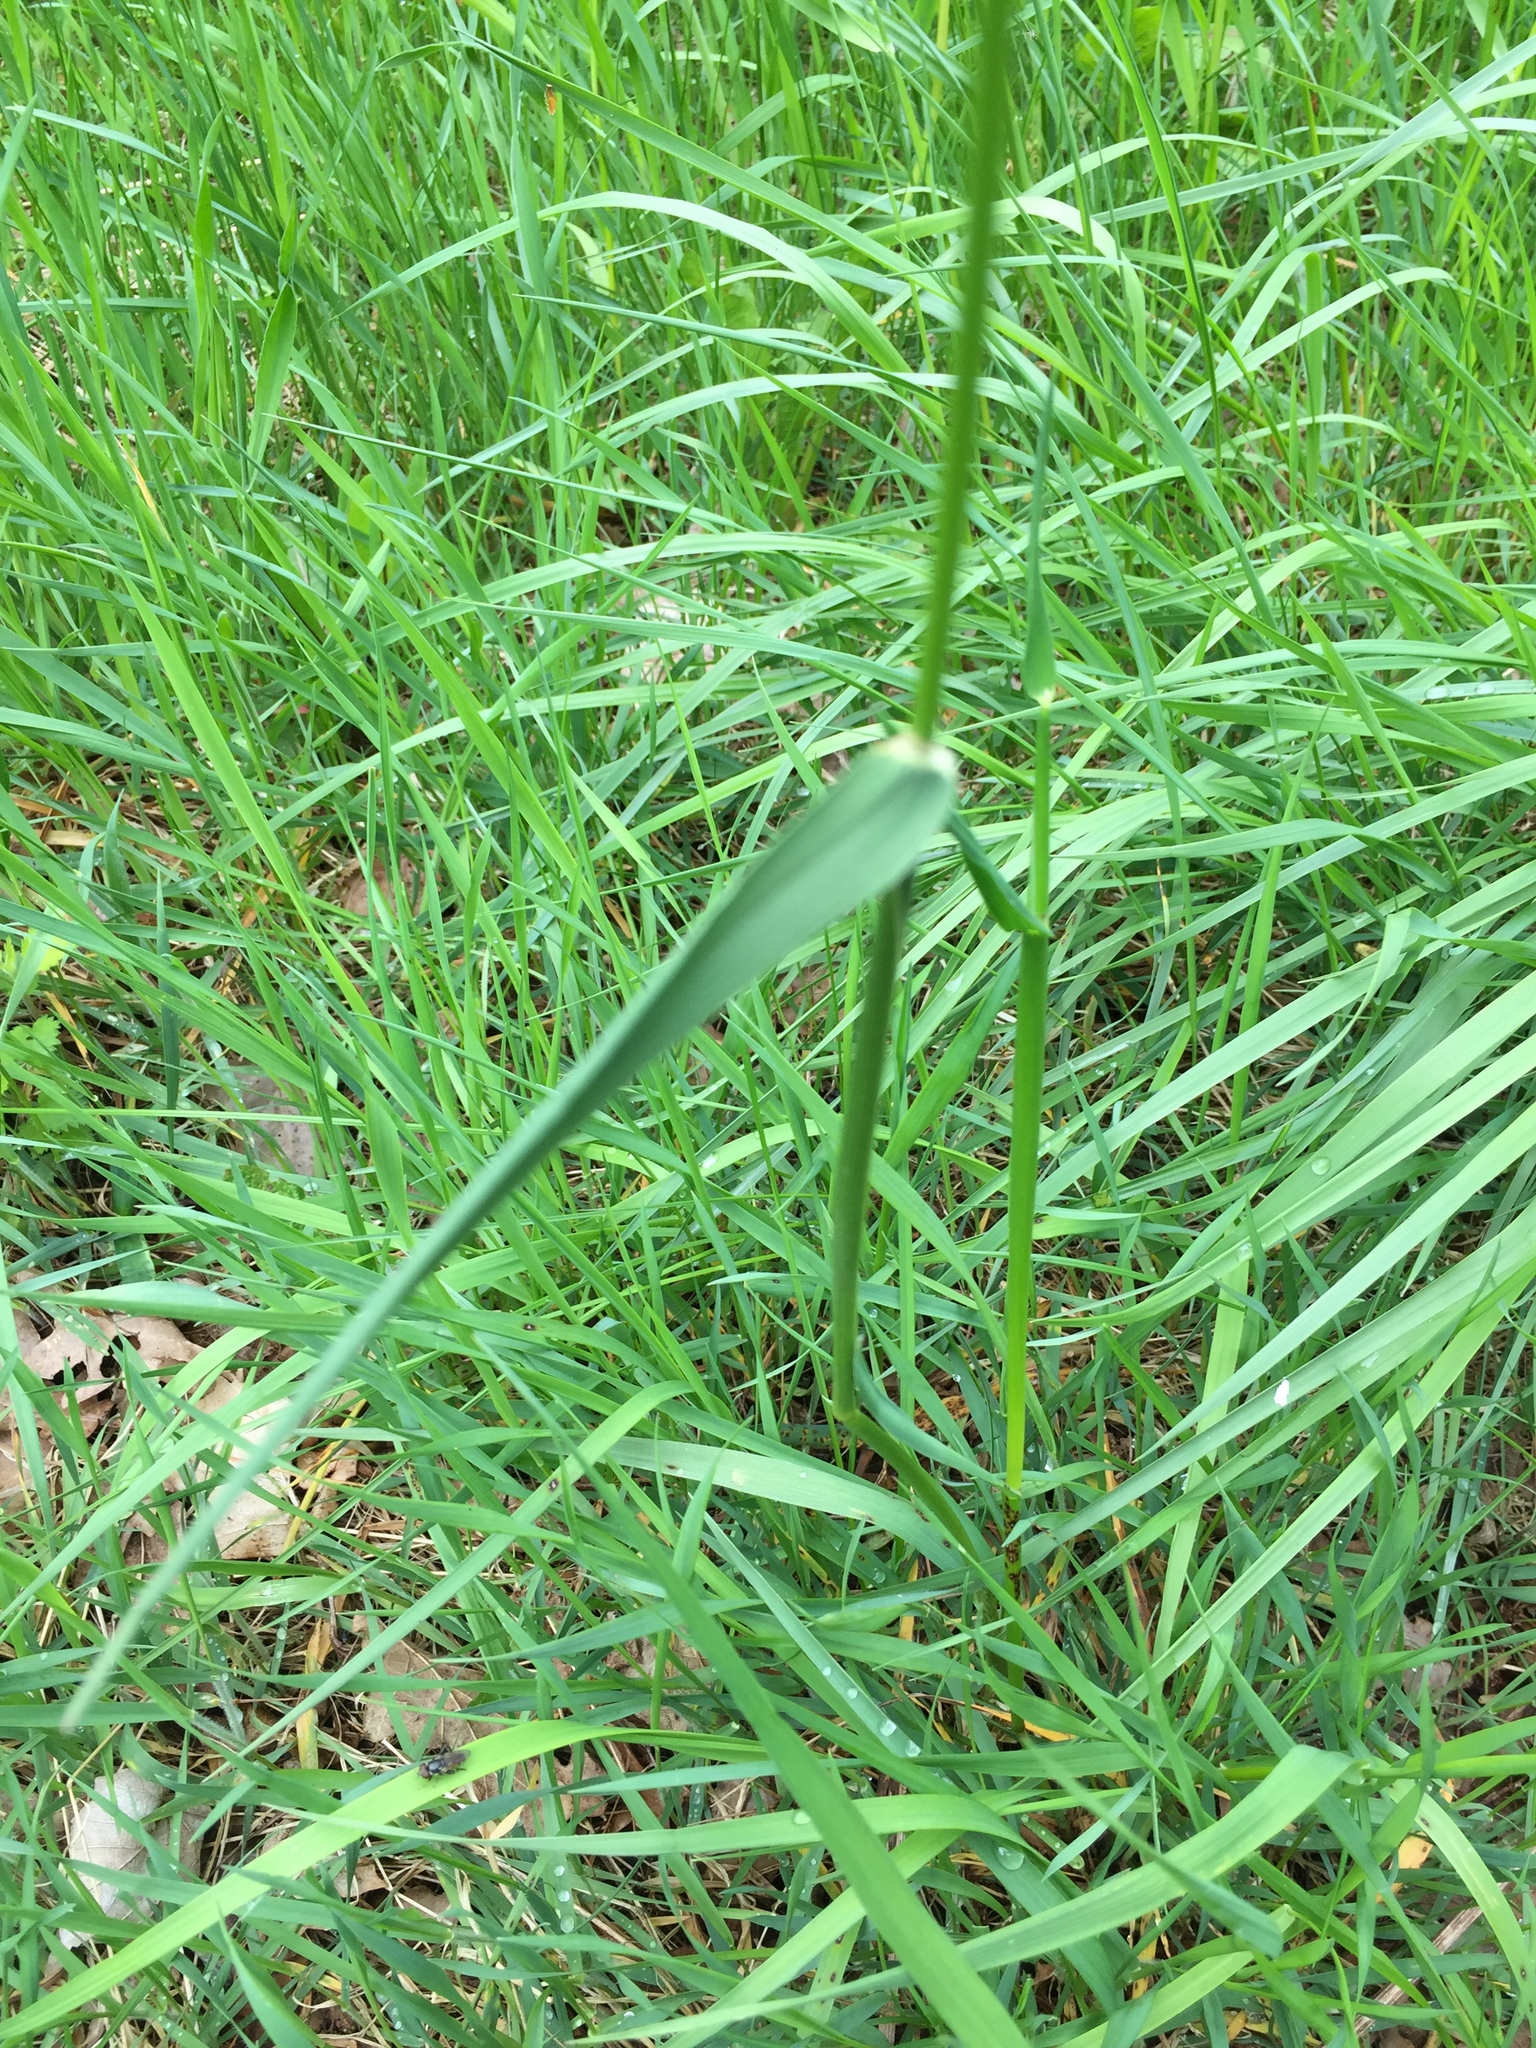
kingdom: Plantae
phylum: Tracheophyta
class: Liliopsida
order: Poales
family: Poaceae
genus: Alopecurus
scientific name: Alopecurus pratensis
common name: Meadow foxtail
